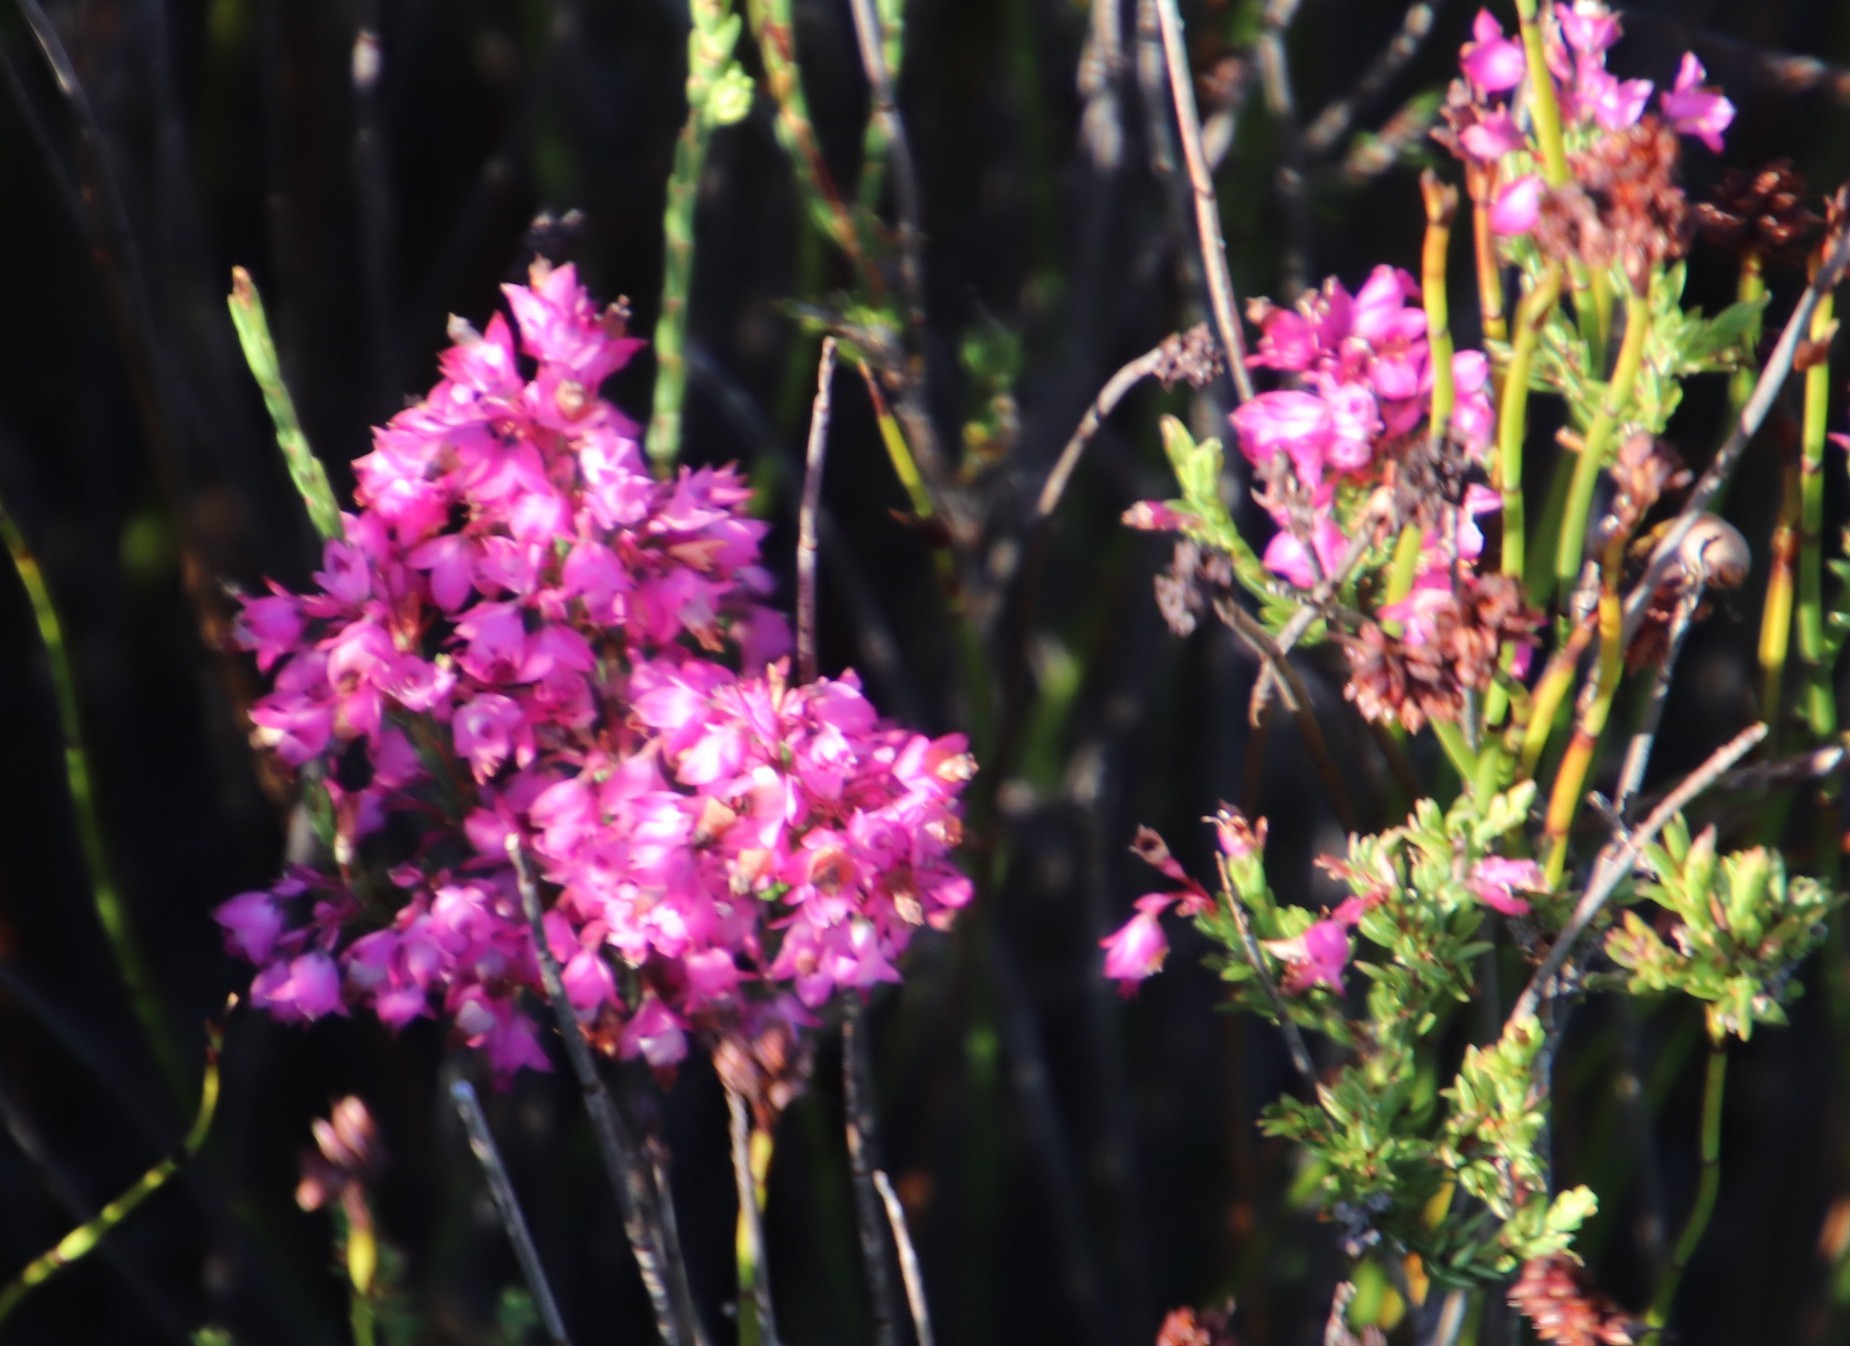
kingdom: Plantae
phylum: Tracheophyta
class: Magnoliopsida
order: Ericales
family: Ericaceae
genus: Erica
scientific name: Erica corifolia
